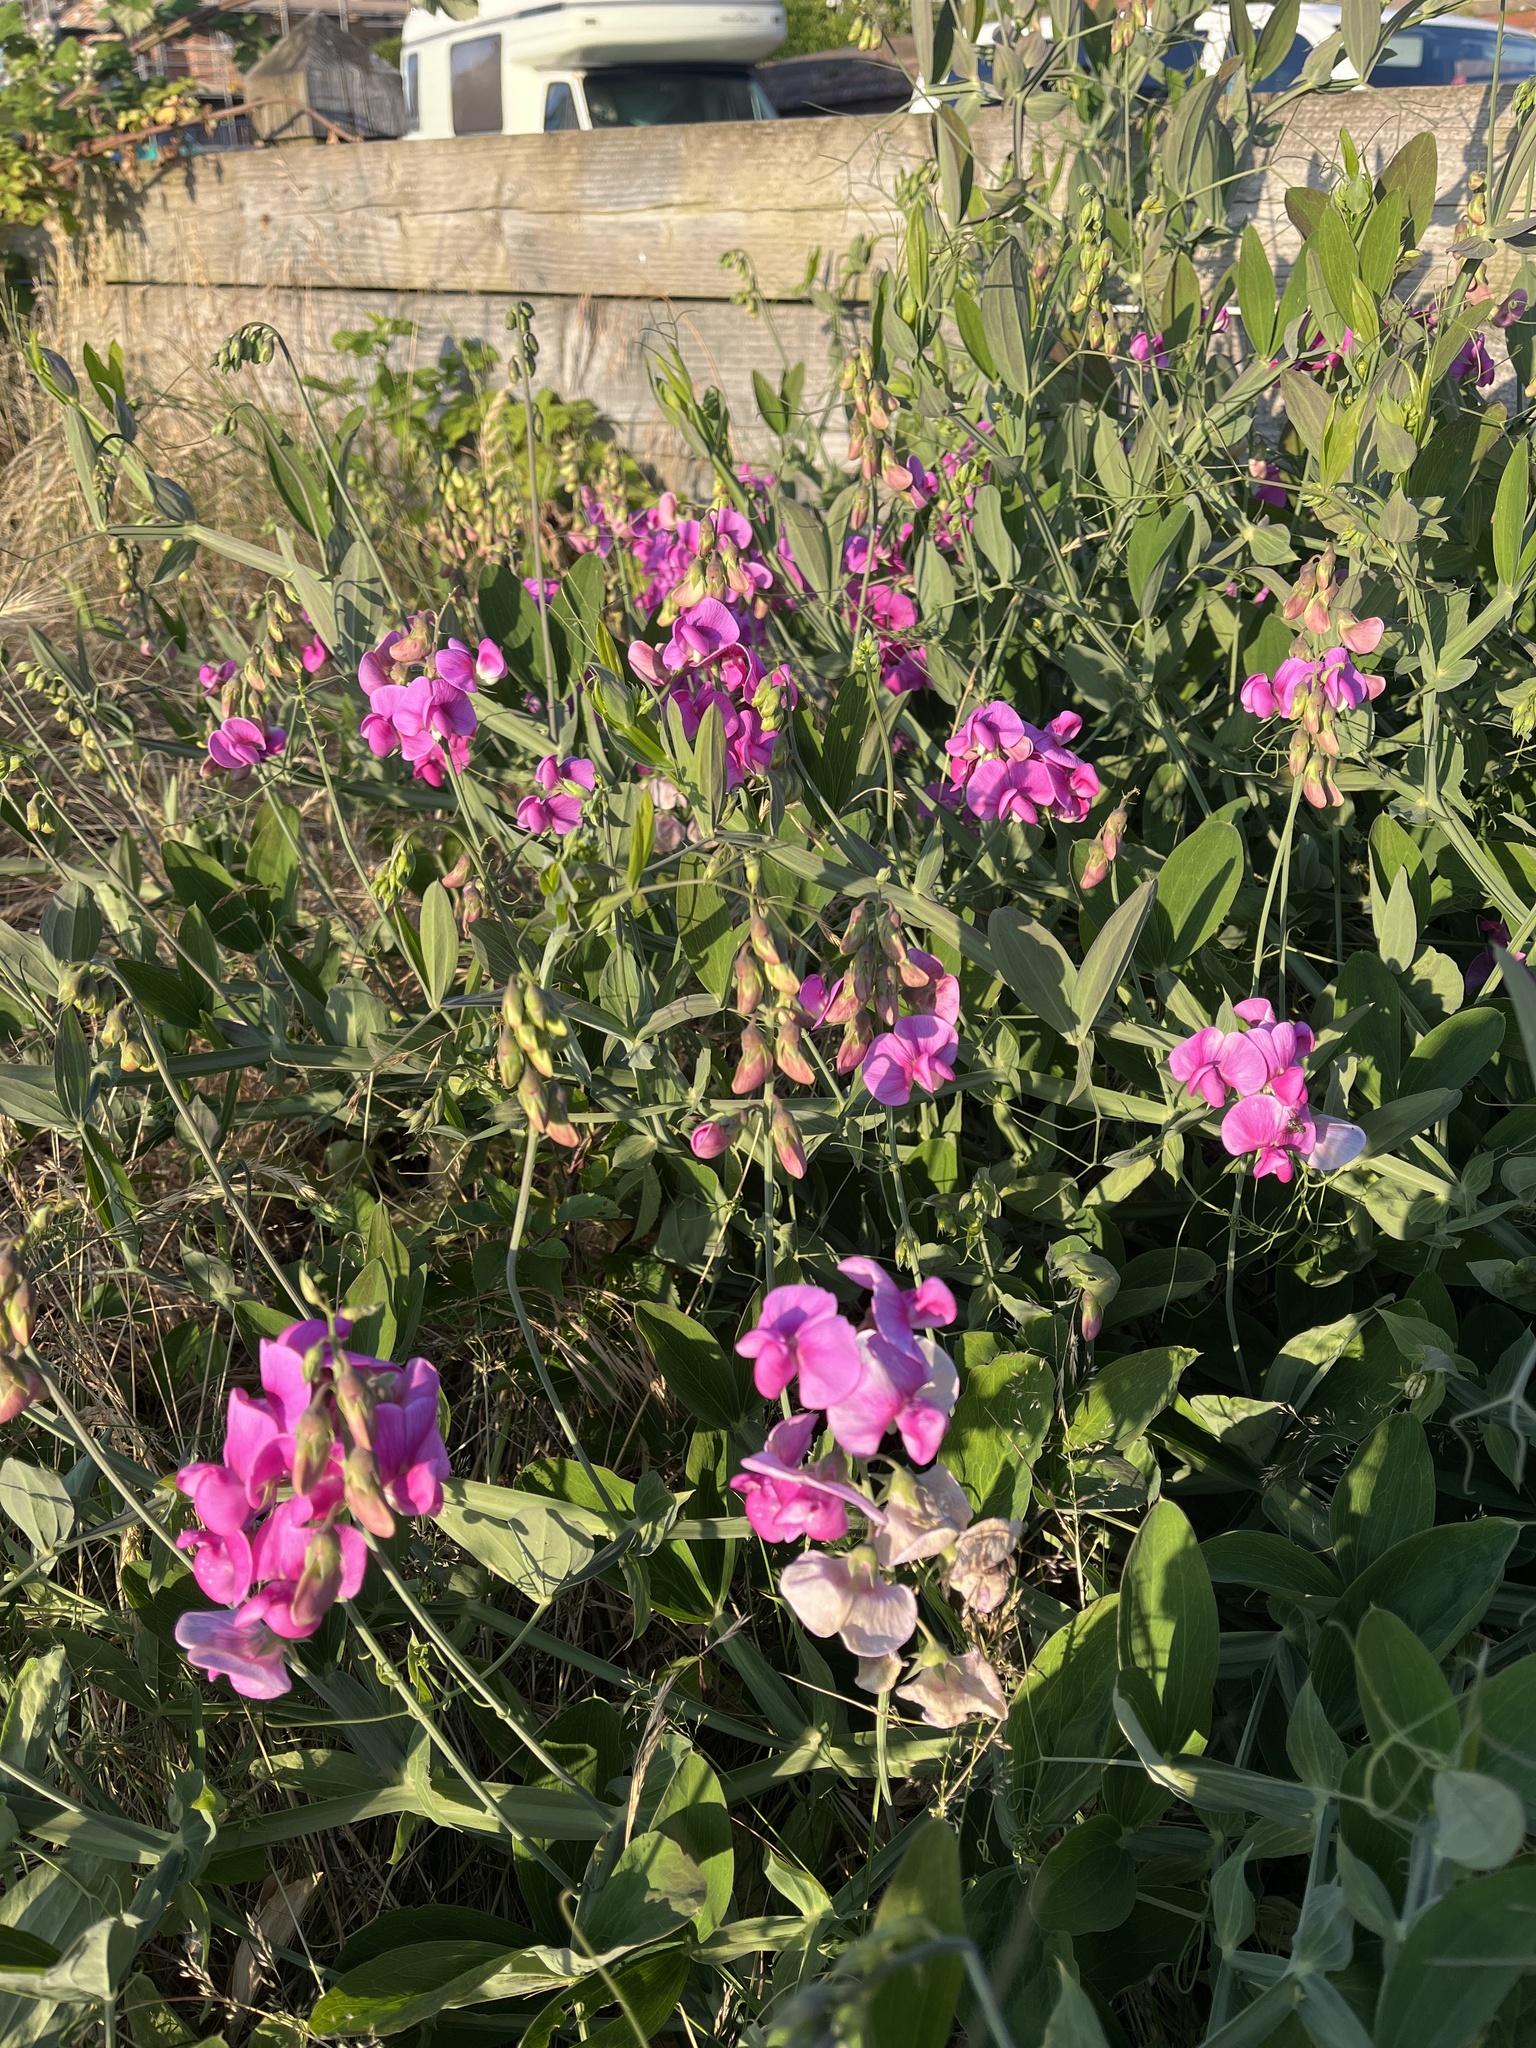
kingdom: Plantae
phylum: Tracheophyta
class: Magnoliopsida
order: Fabales
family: Fabaceae
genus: Lathyrus
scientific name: Lathyrus latifolius
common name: Perennial pea
